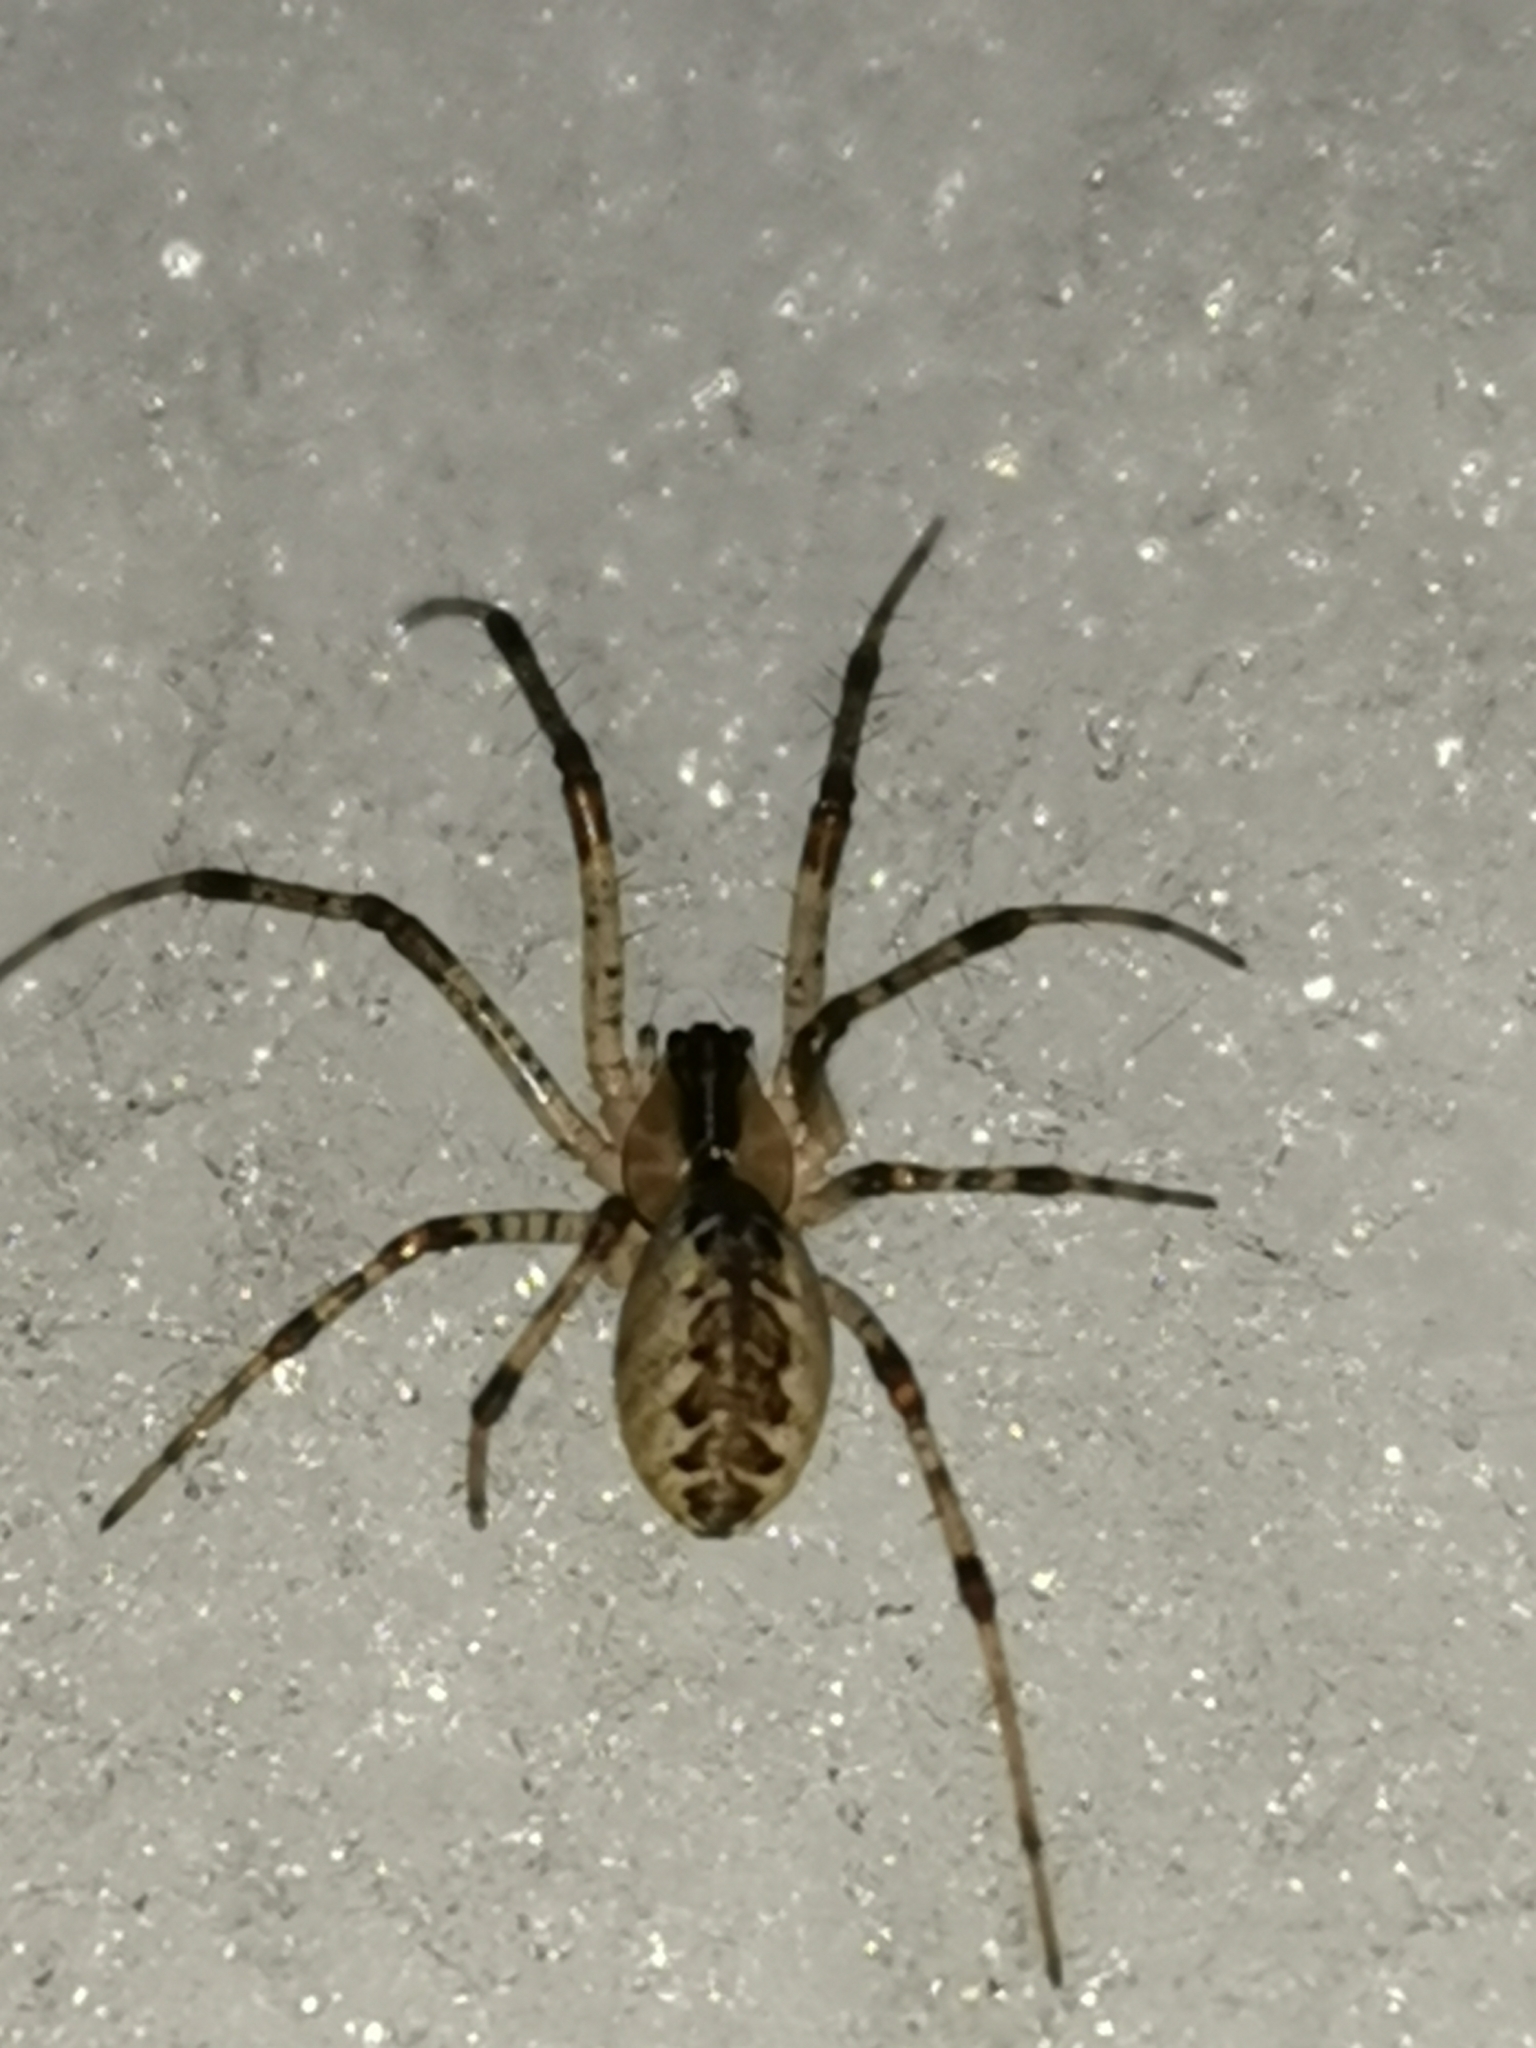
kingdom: Animalia
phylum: Arthropoda
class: Arachnida
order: Araneae
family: Linyphiidae
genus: Pityohyphantes
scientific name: Pityohyphantes phrygianus
